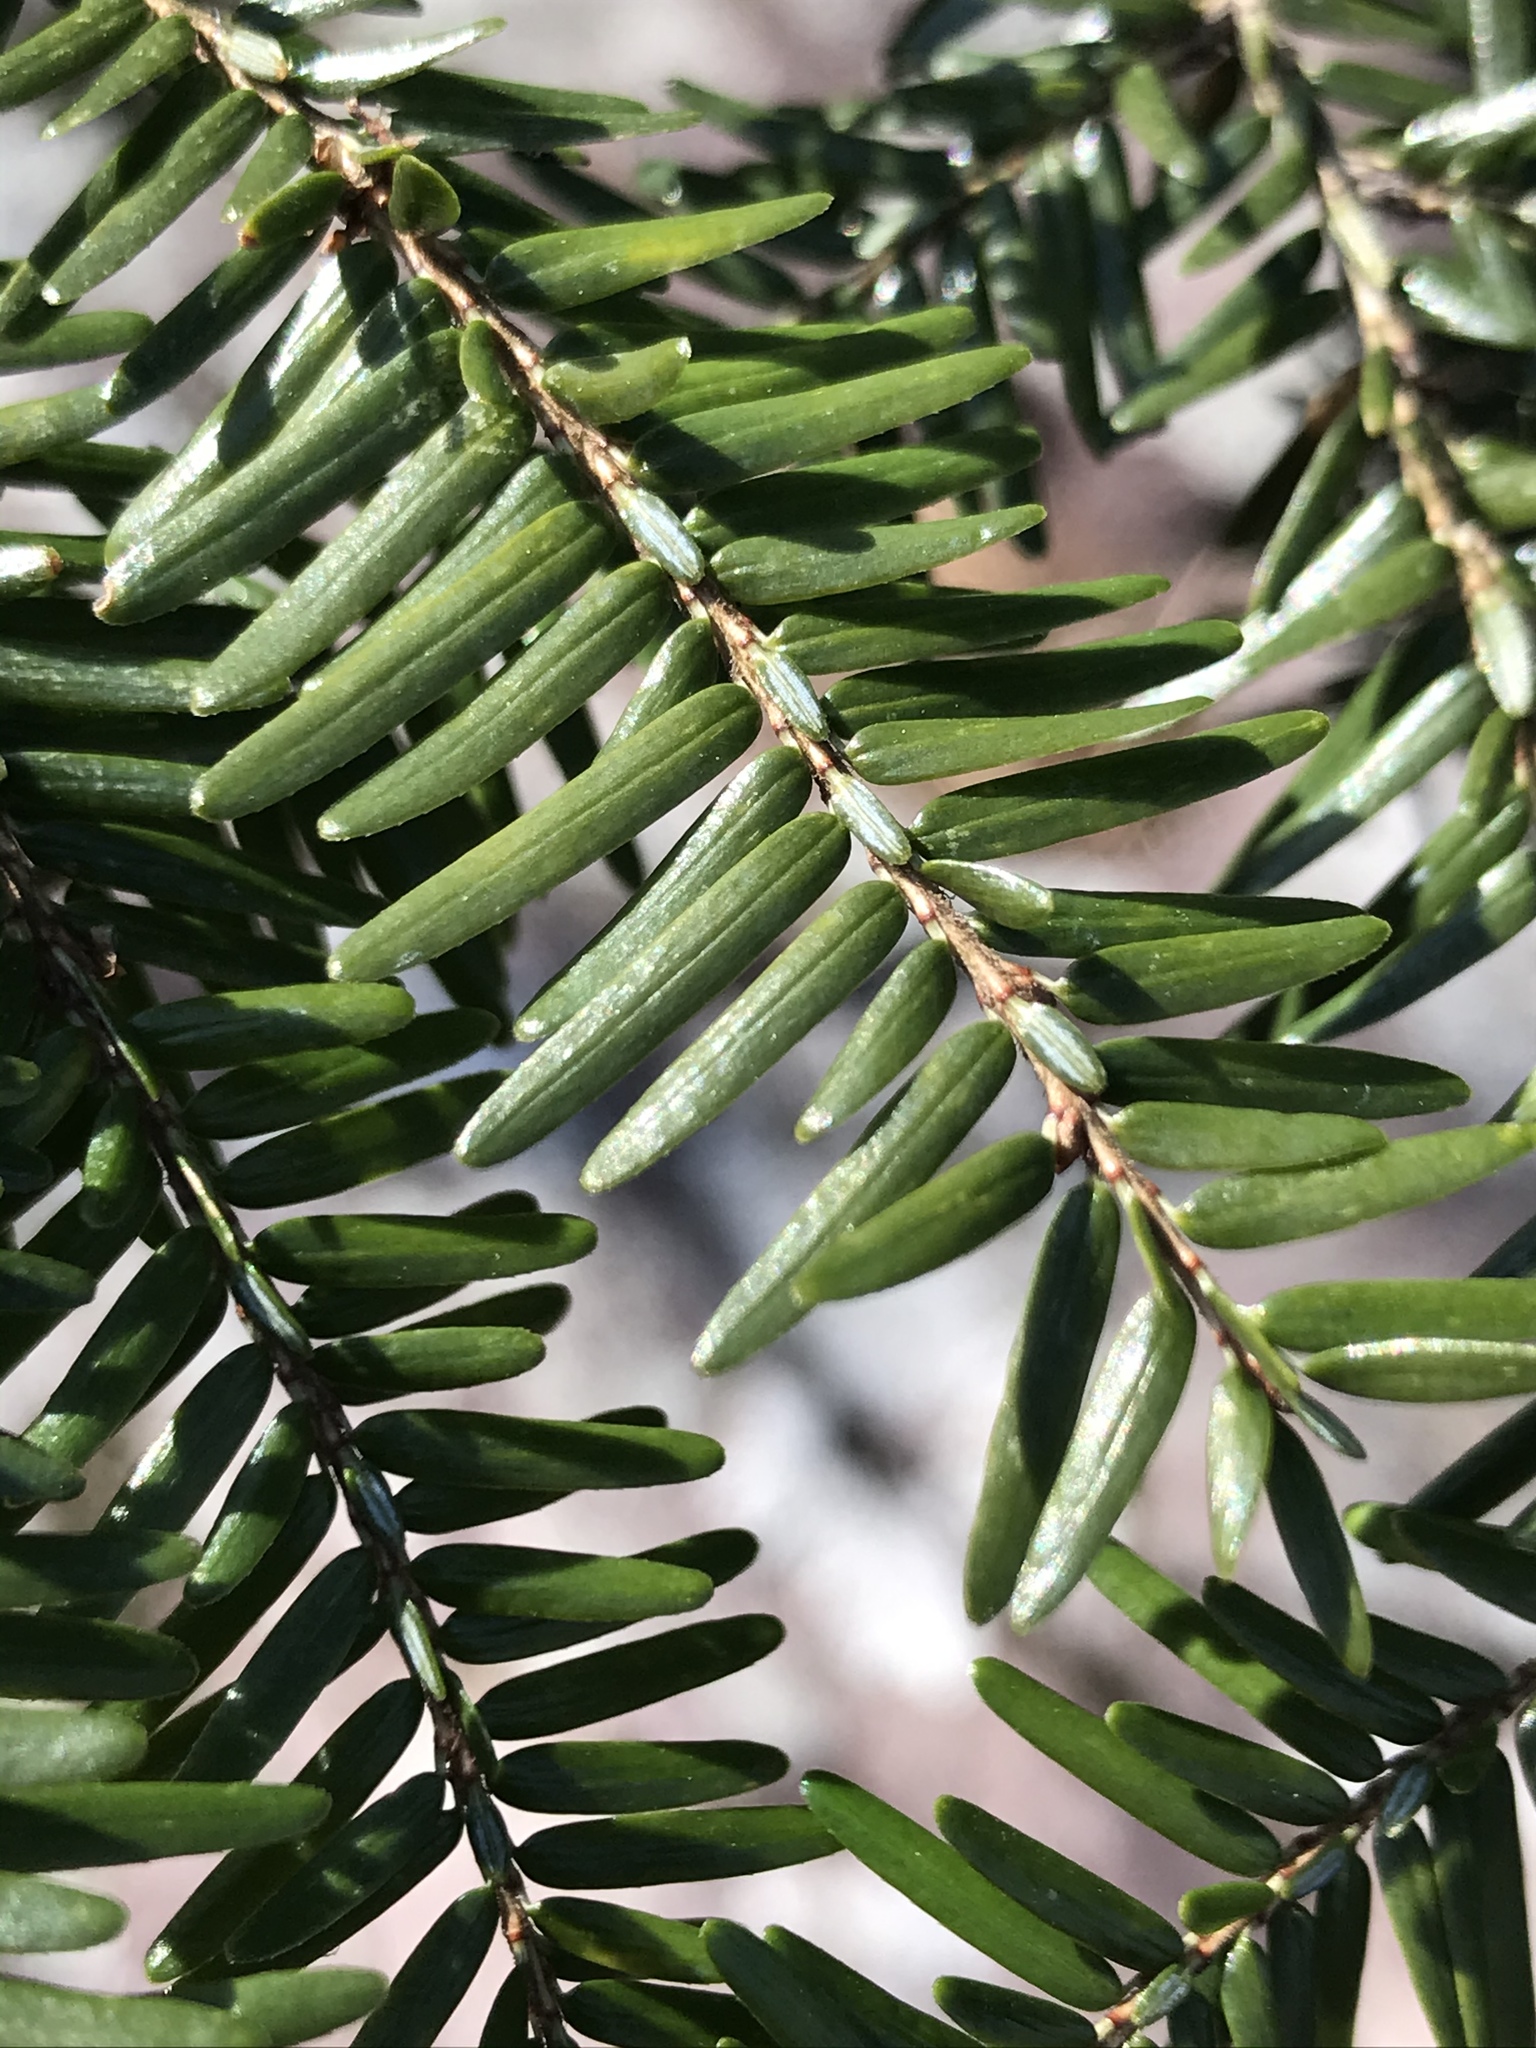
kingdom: Plantae
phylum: Tracheophyta
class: Pinopsida
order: Pinales
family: Pinaceae
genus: Tsuga
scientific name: Tsuga canadensis
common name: Eastern hemlock
